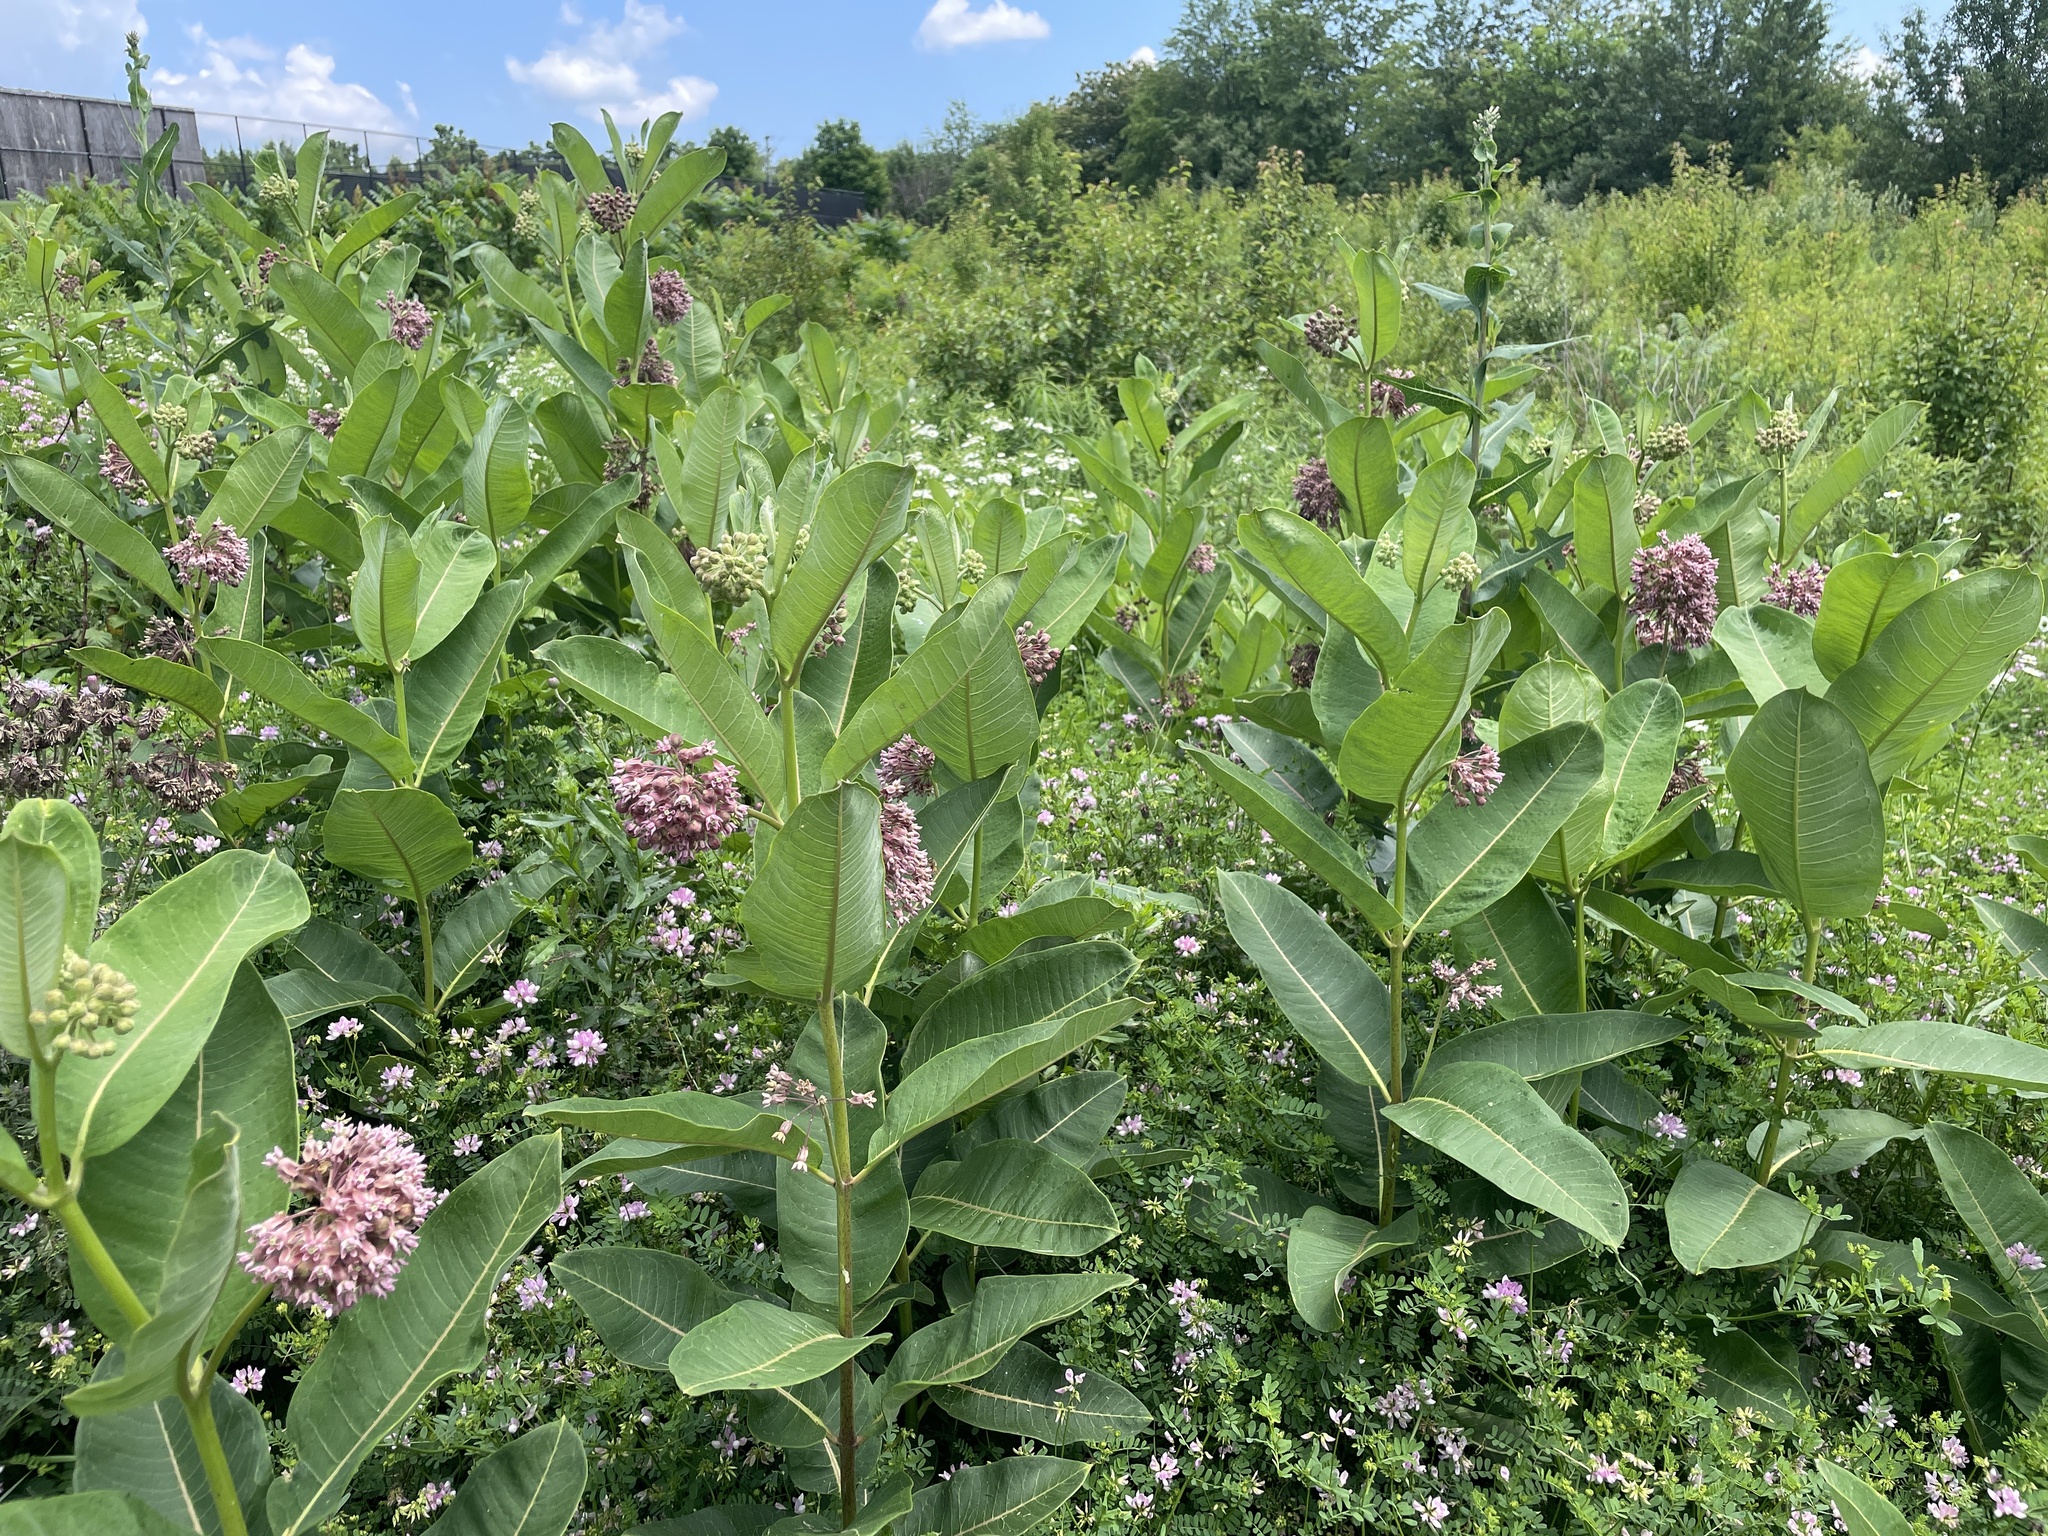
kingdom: Plantae
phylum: Tracheophyta
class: Magnoliopsida
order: Gentianales
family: Apocynaceae
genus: Asclepias
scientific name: Asclepias syriaca
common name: Common milkweed
